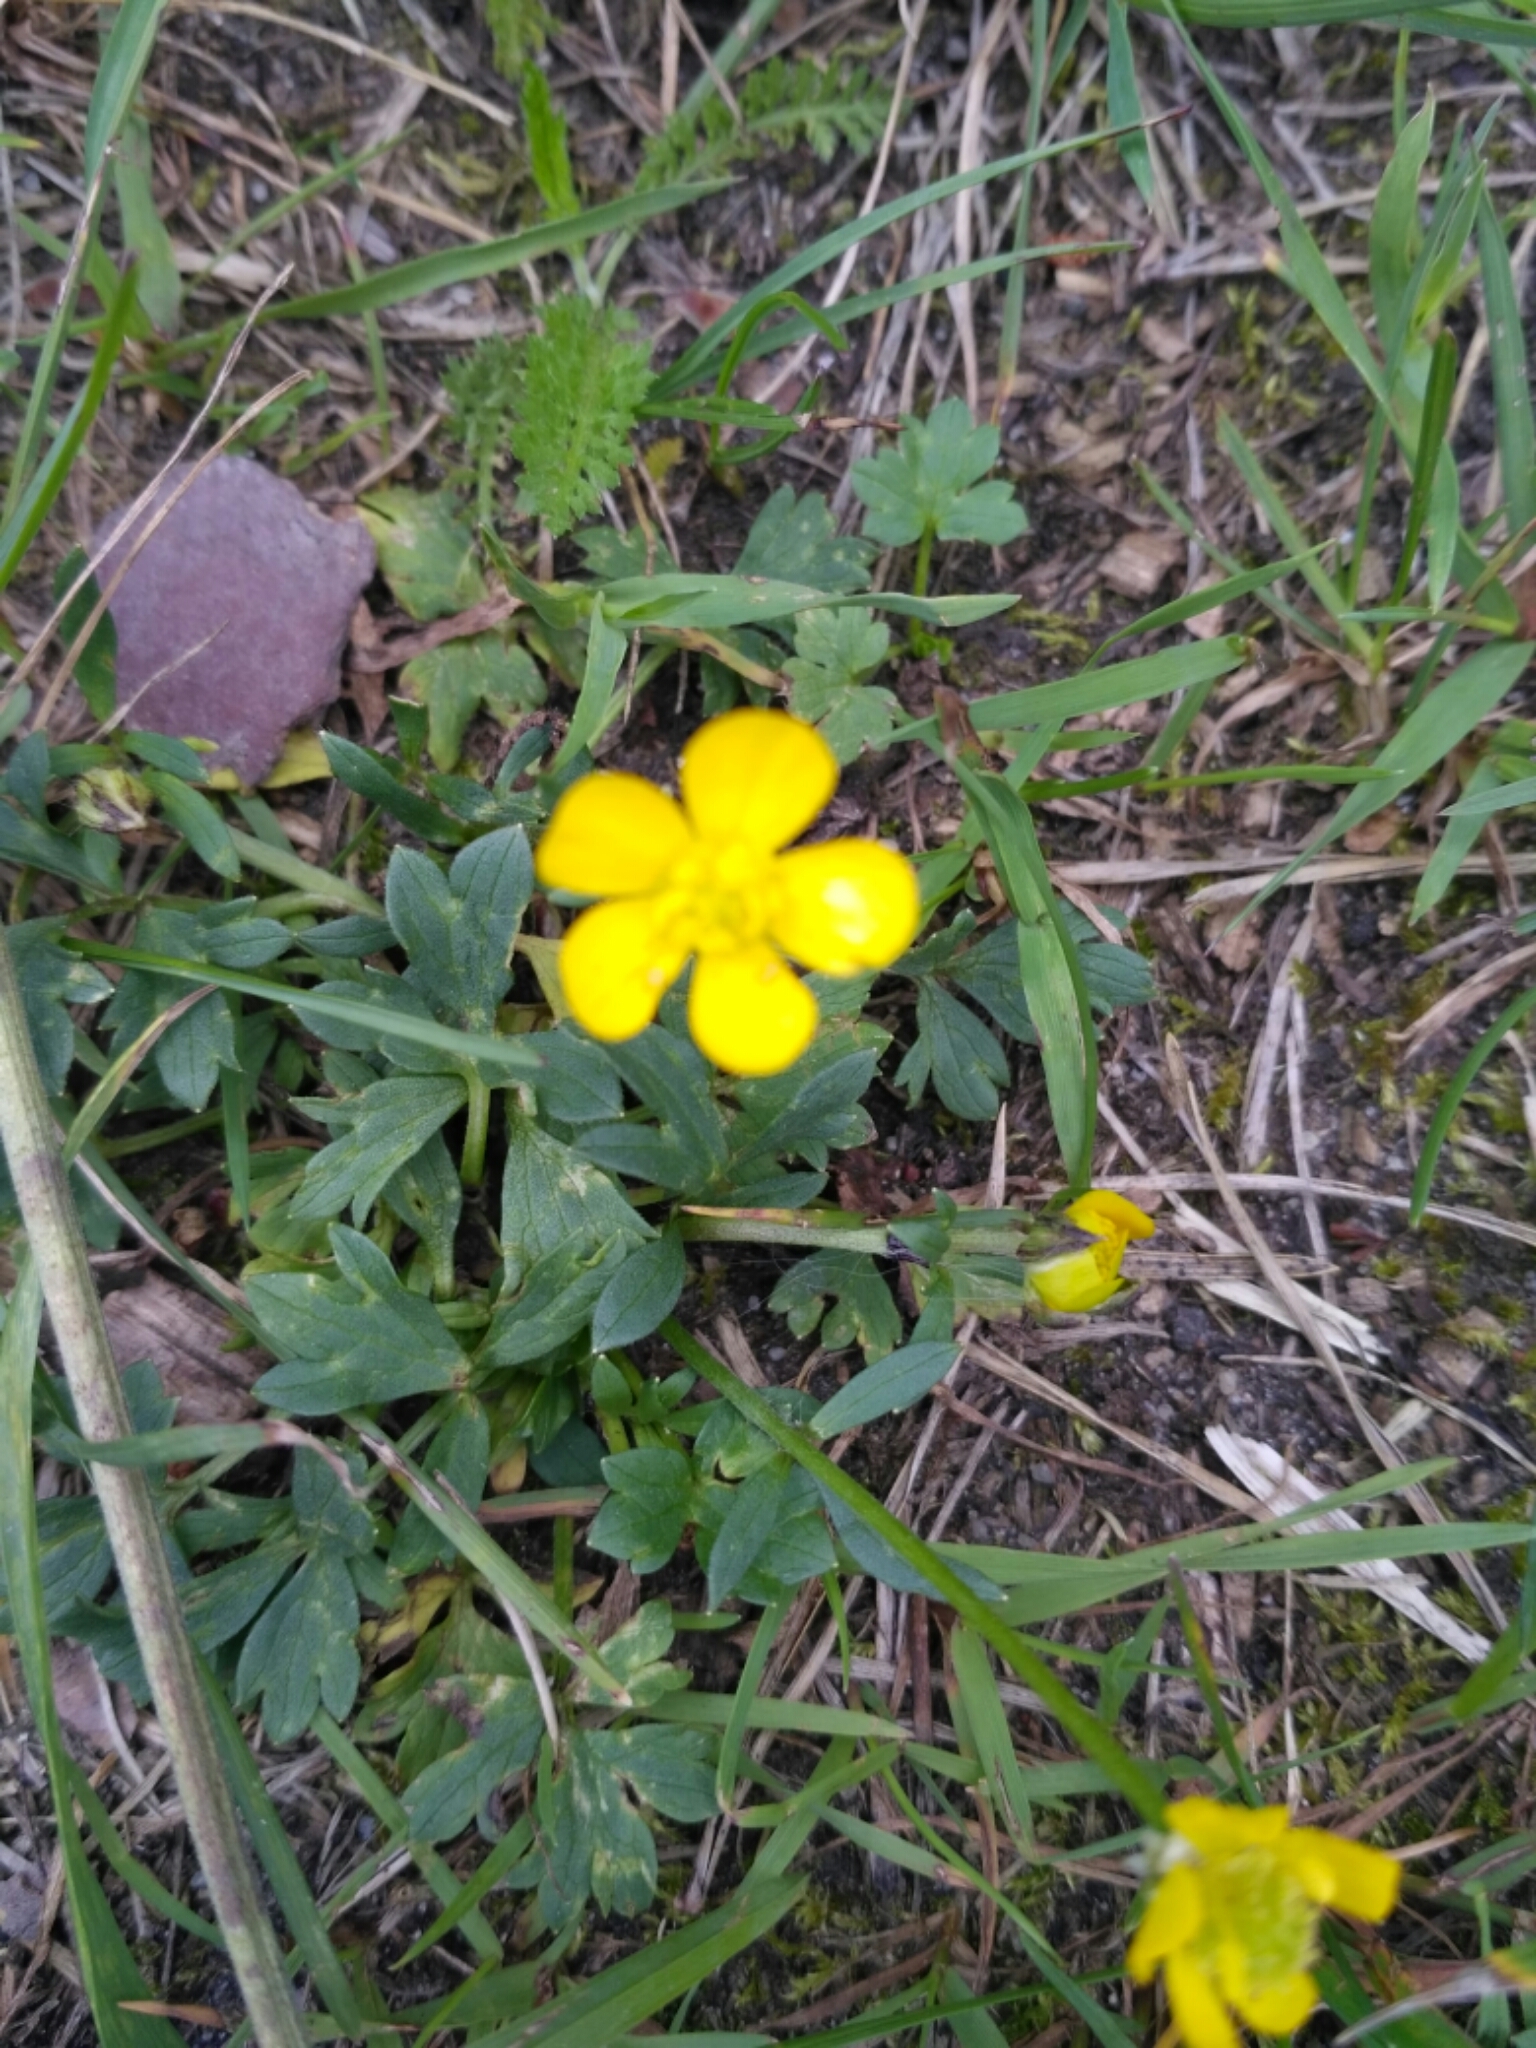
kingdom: Plantae
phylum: Tracheophyta
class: Magnoliopsida
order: Ranunculales
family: Ranunculaceae
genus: Ranunculus
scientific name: Ranunculus repens
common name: Creeping buttercup
